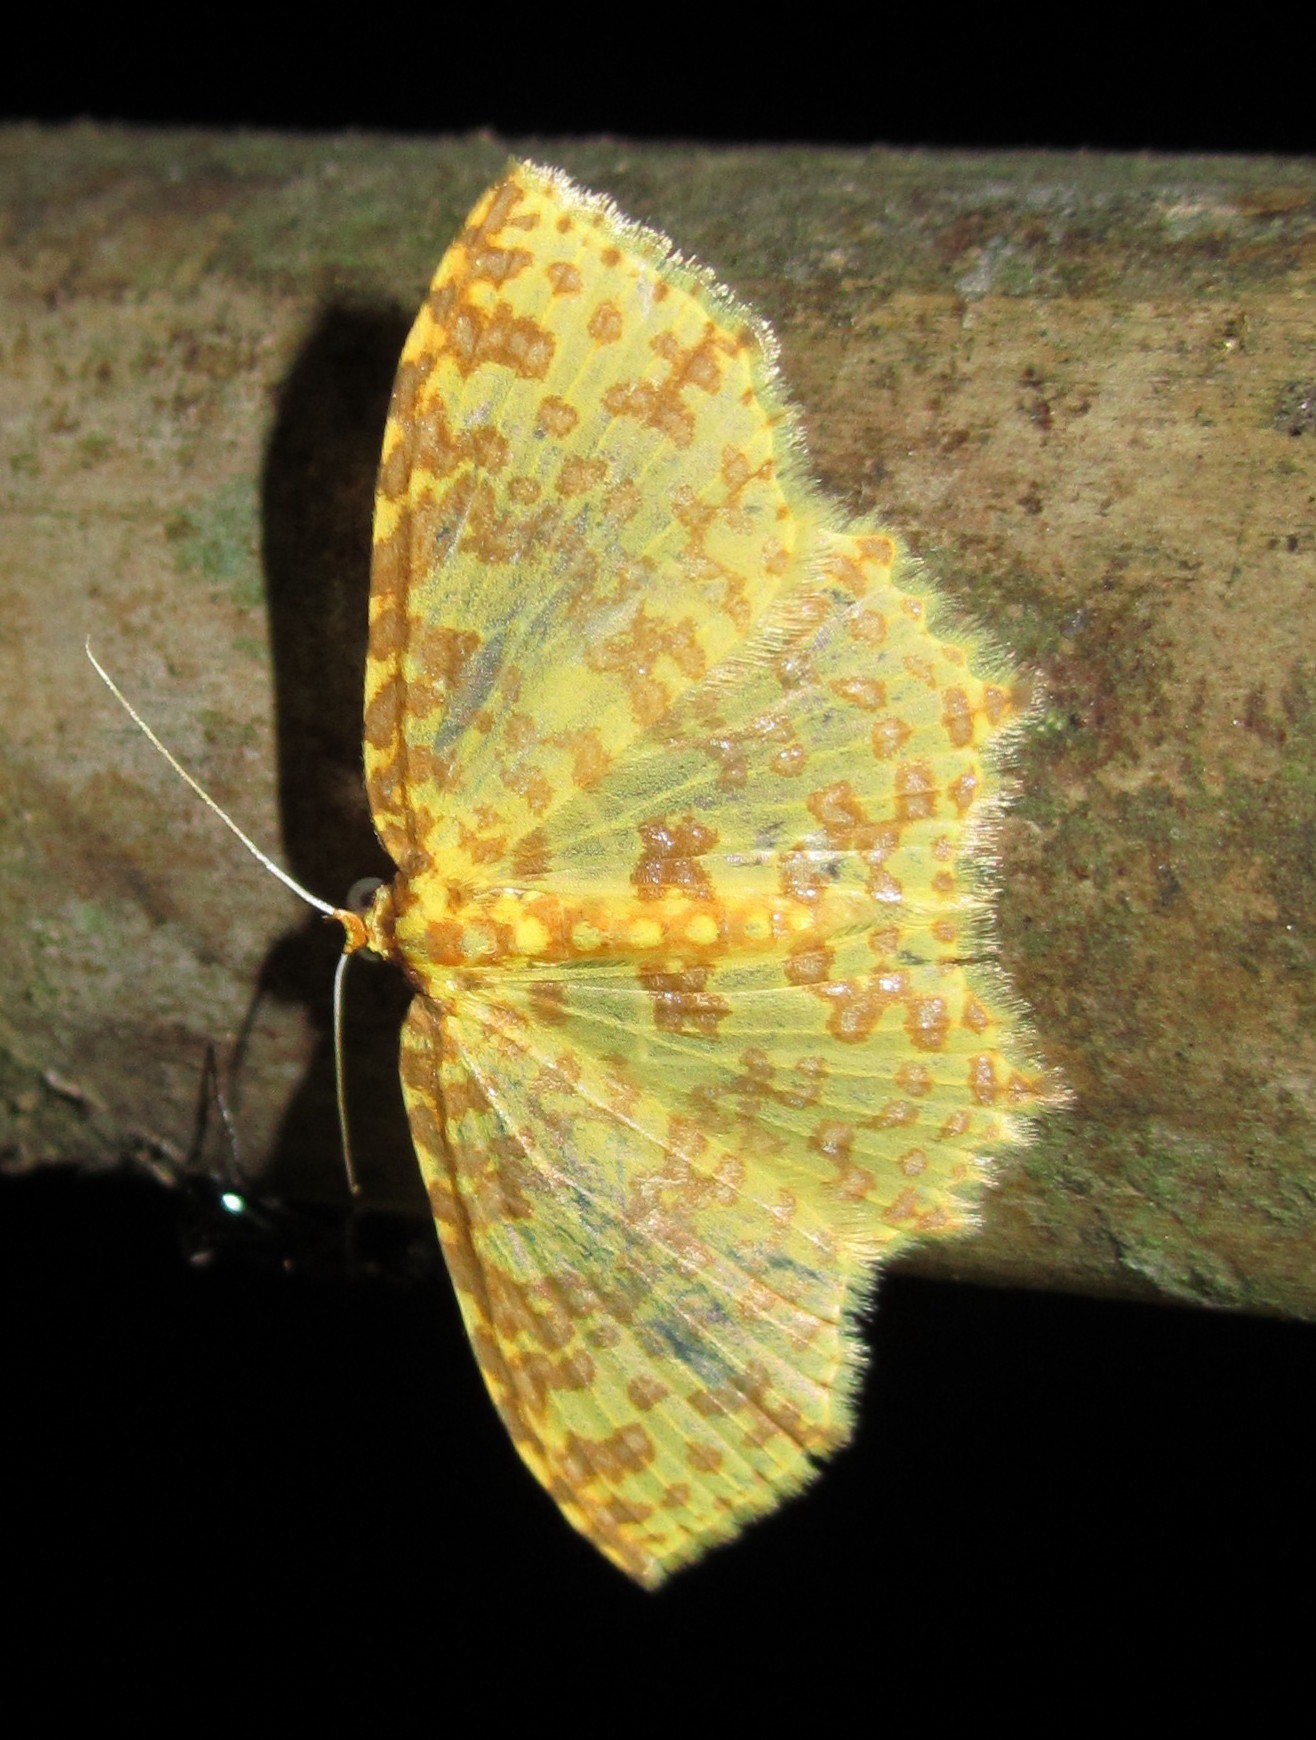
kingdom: Animalia
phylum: Arthropoda
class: Insecta
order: Lepidoptera
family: Geometridae
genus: Polynesia
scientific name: Polynesia sunandava
